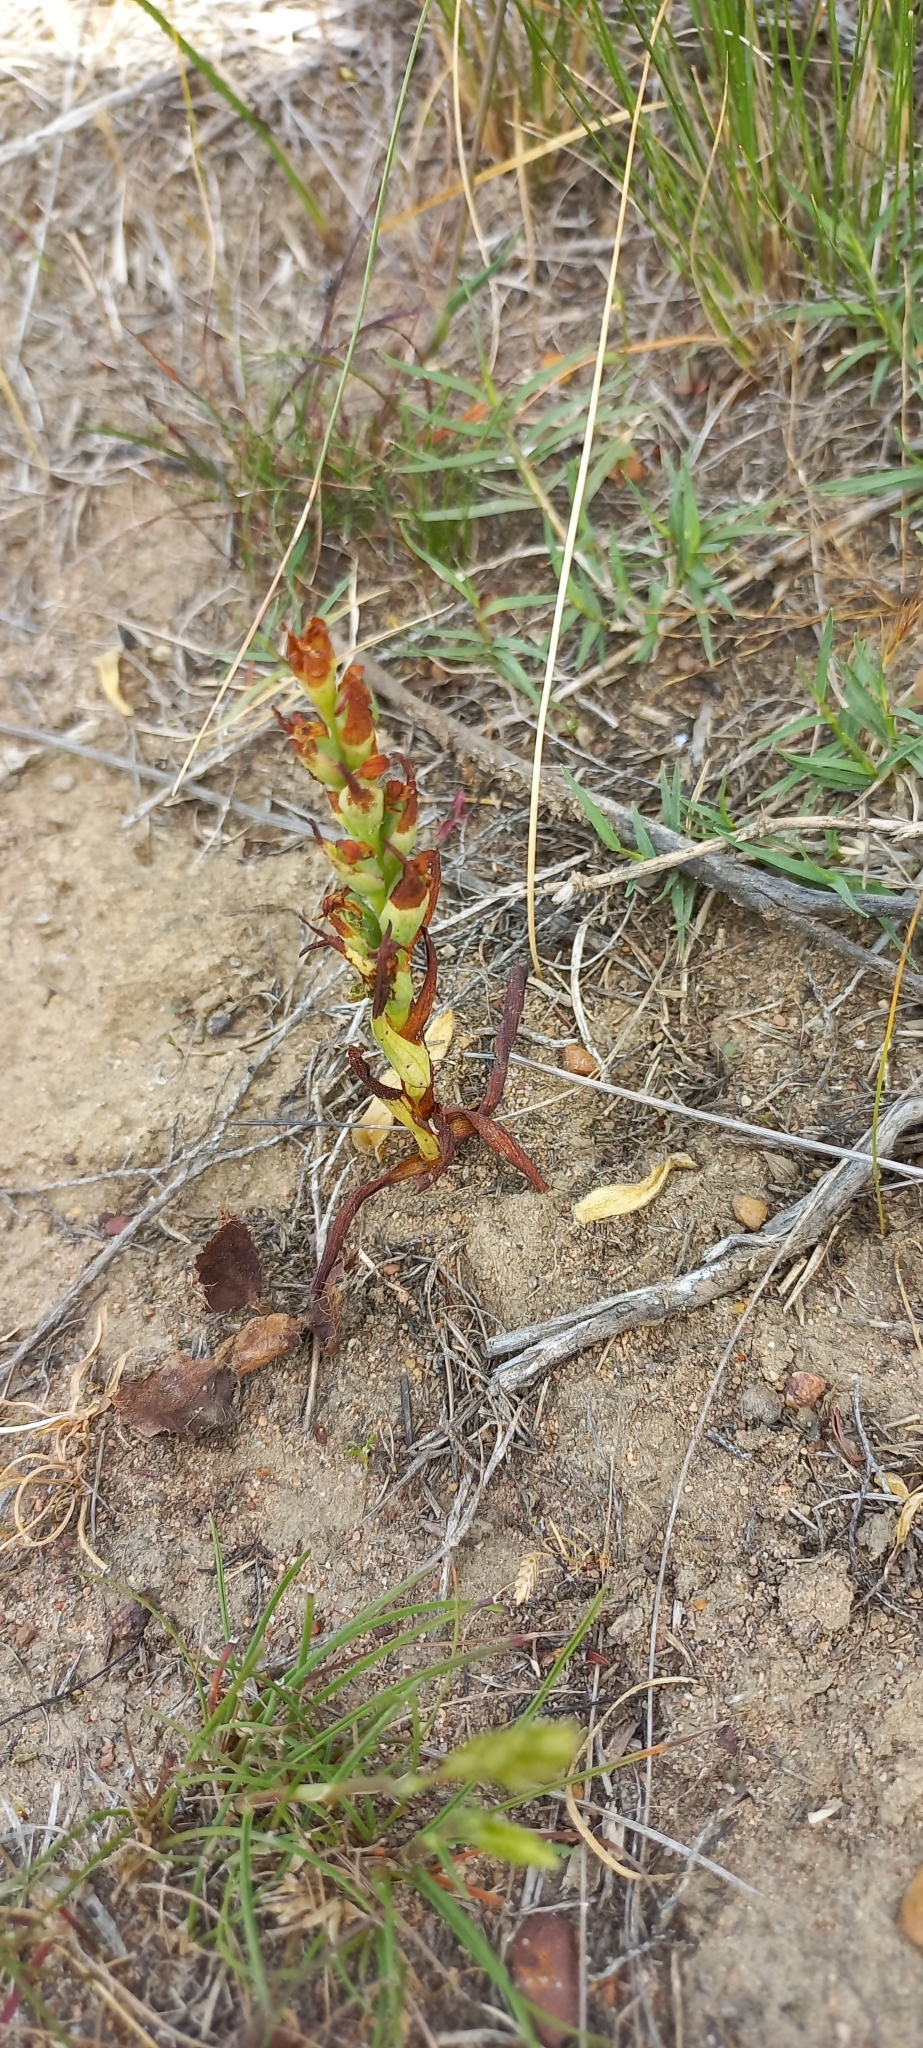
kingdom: Plantae
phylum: Tracheophyta
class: Liliopsida
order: Asparagales
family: Orchidaceae
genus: Disa
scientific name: Disa bracteata
